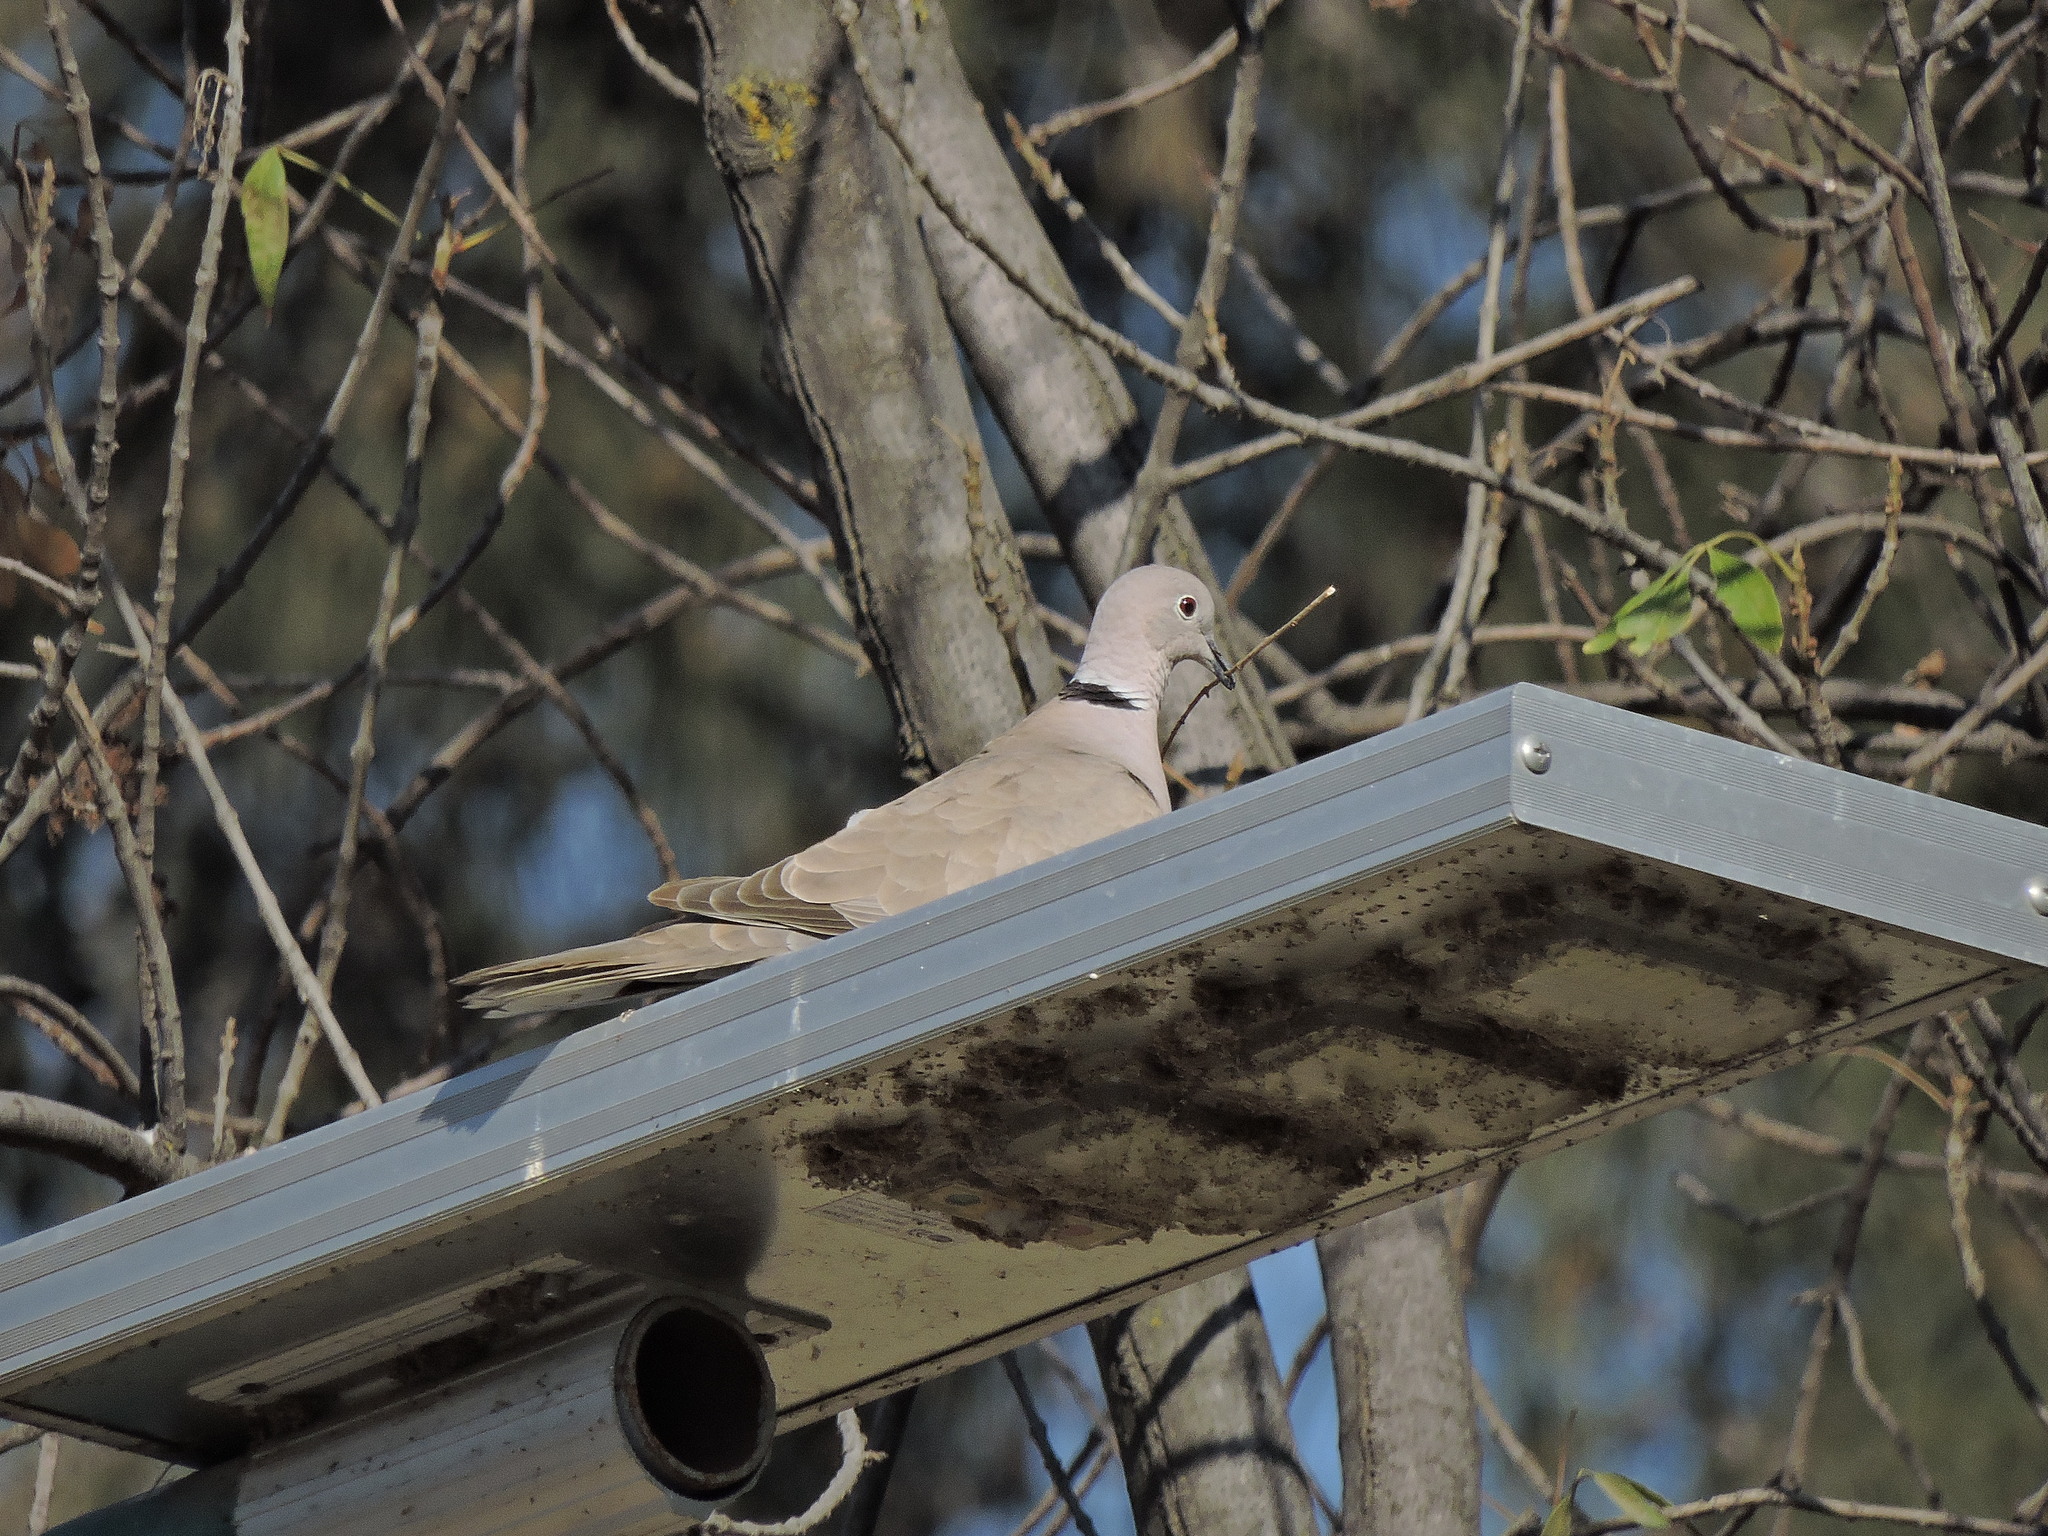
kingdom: Animalia
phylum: Chordata
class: Aves
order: Columbiformes
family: Columbidae
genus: Streptopelia
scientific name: Streptopelia decaocto
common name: Eurasian collared dove
